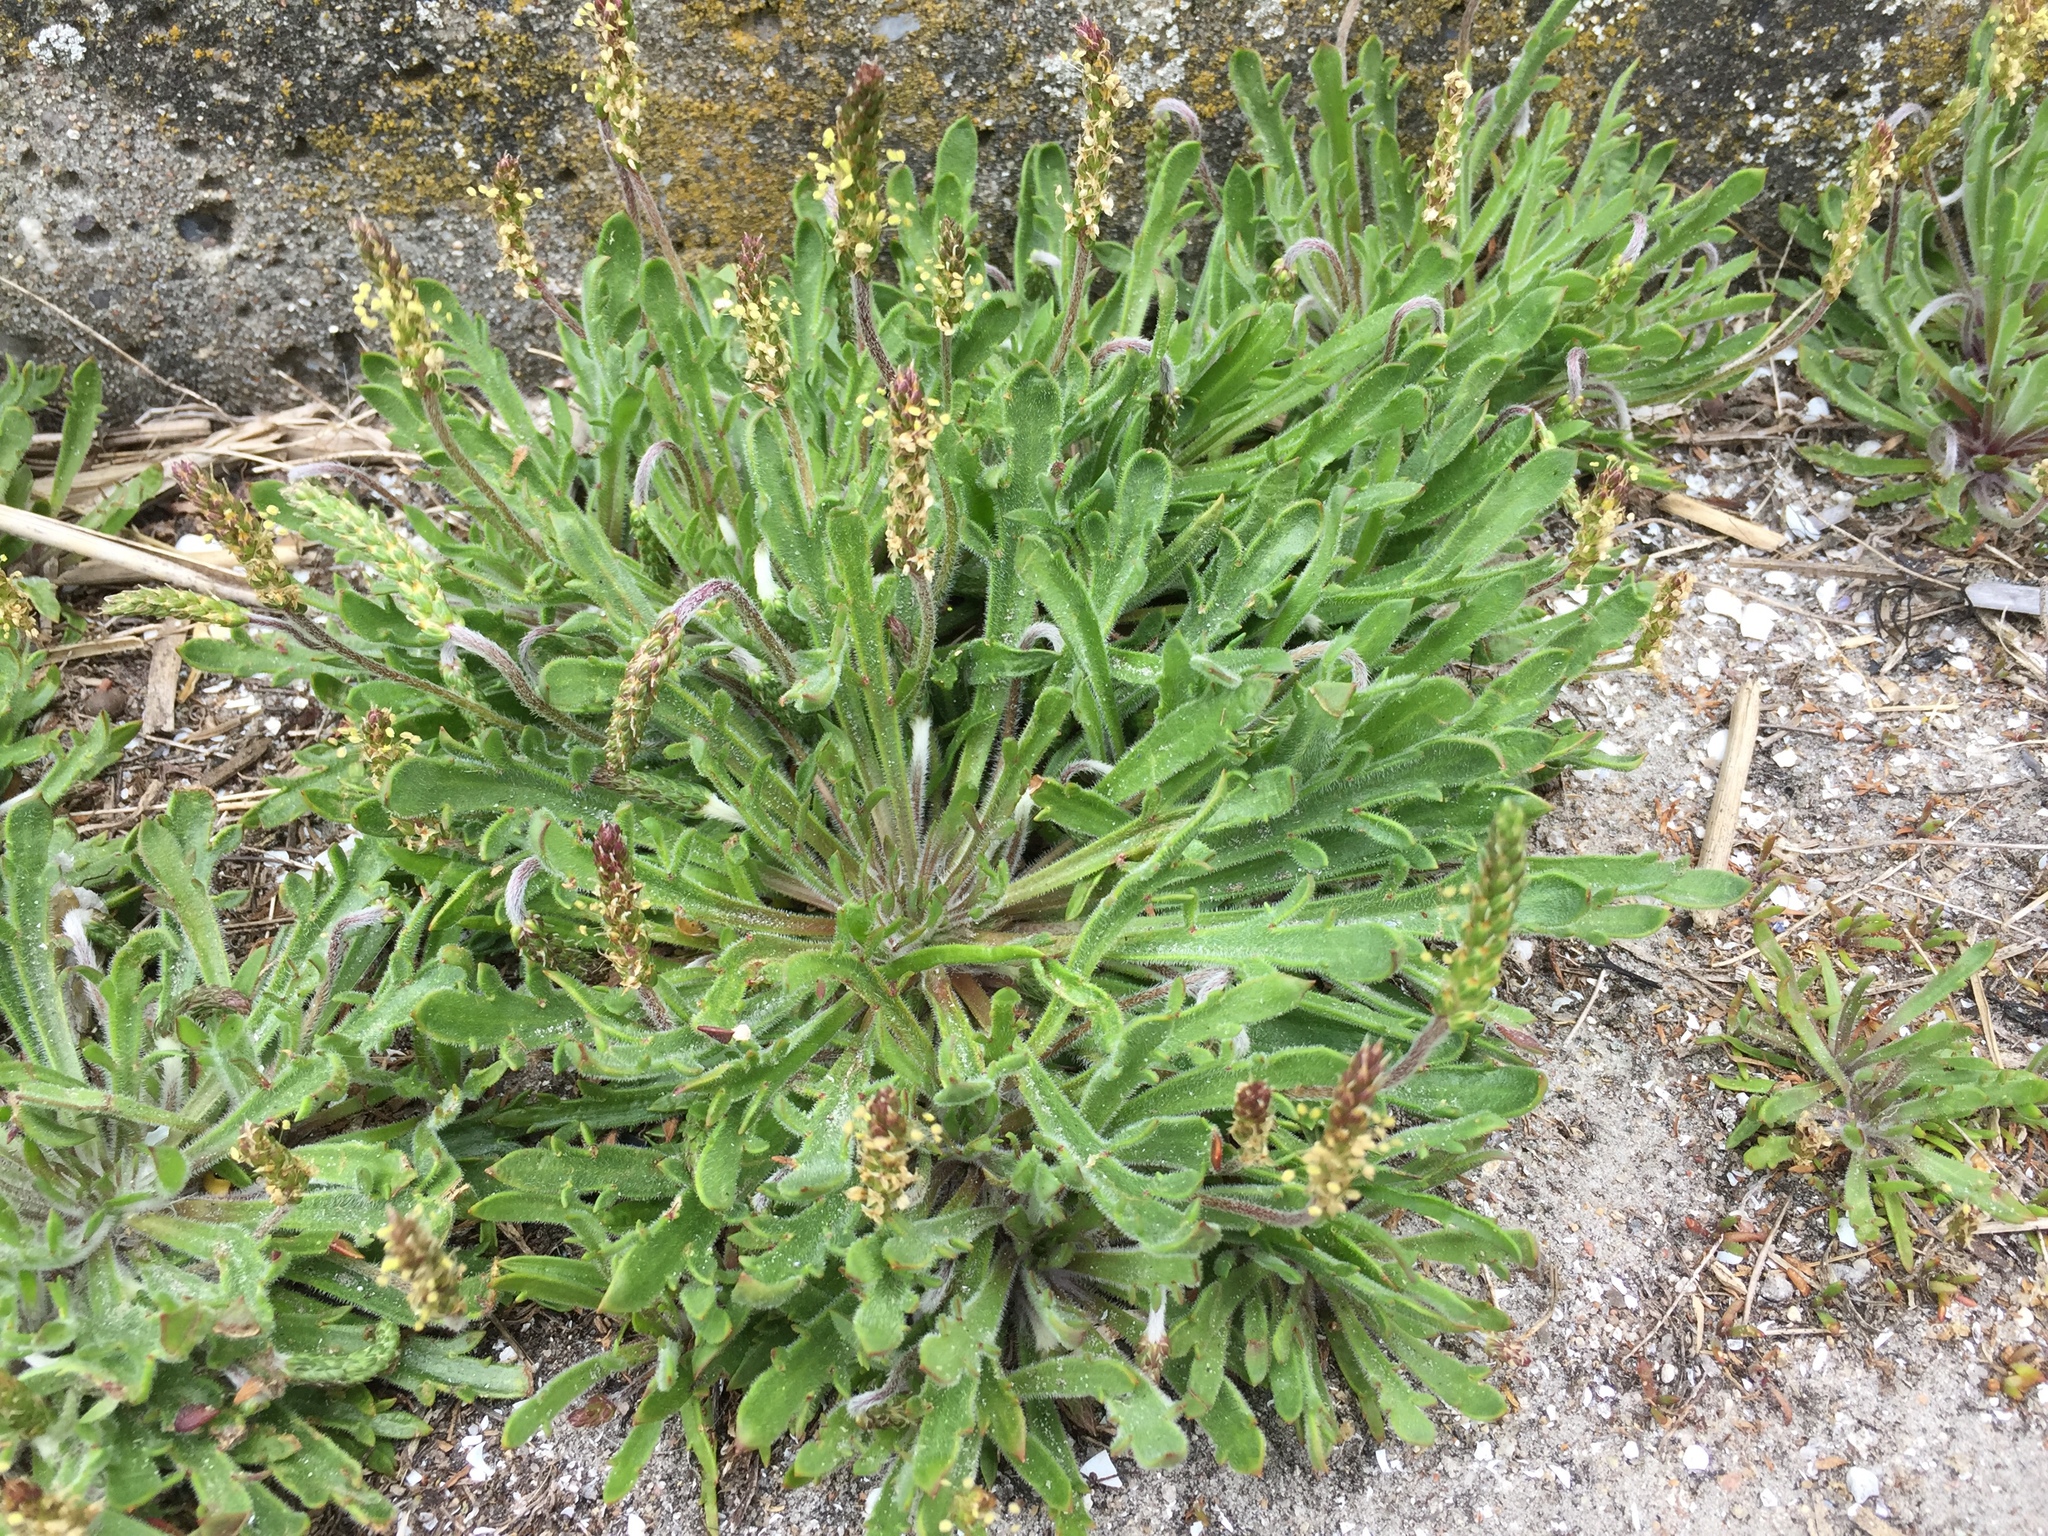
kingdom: Plantae
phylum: Tracheophyta
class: Magnoliopsida
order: Lamiales
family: Plantaginaceae
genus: Plantago
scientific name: Plantago coronopus
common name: Buck's-horn plantain
